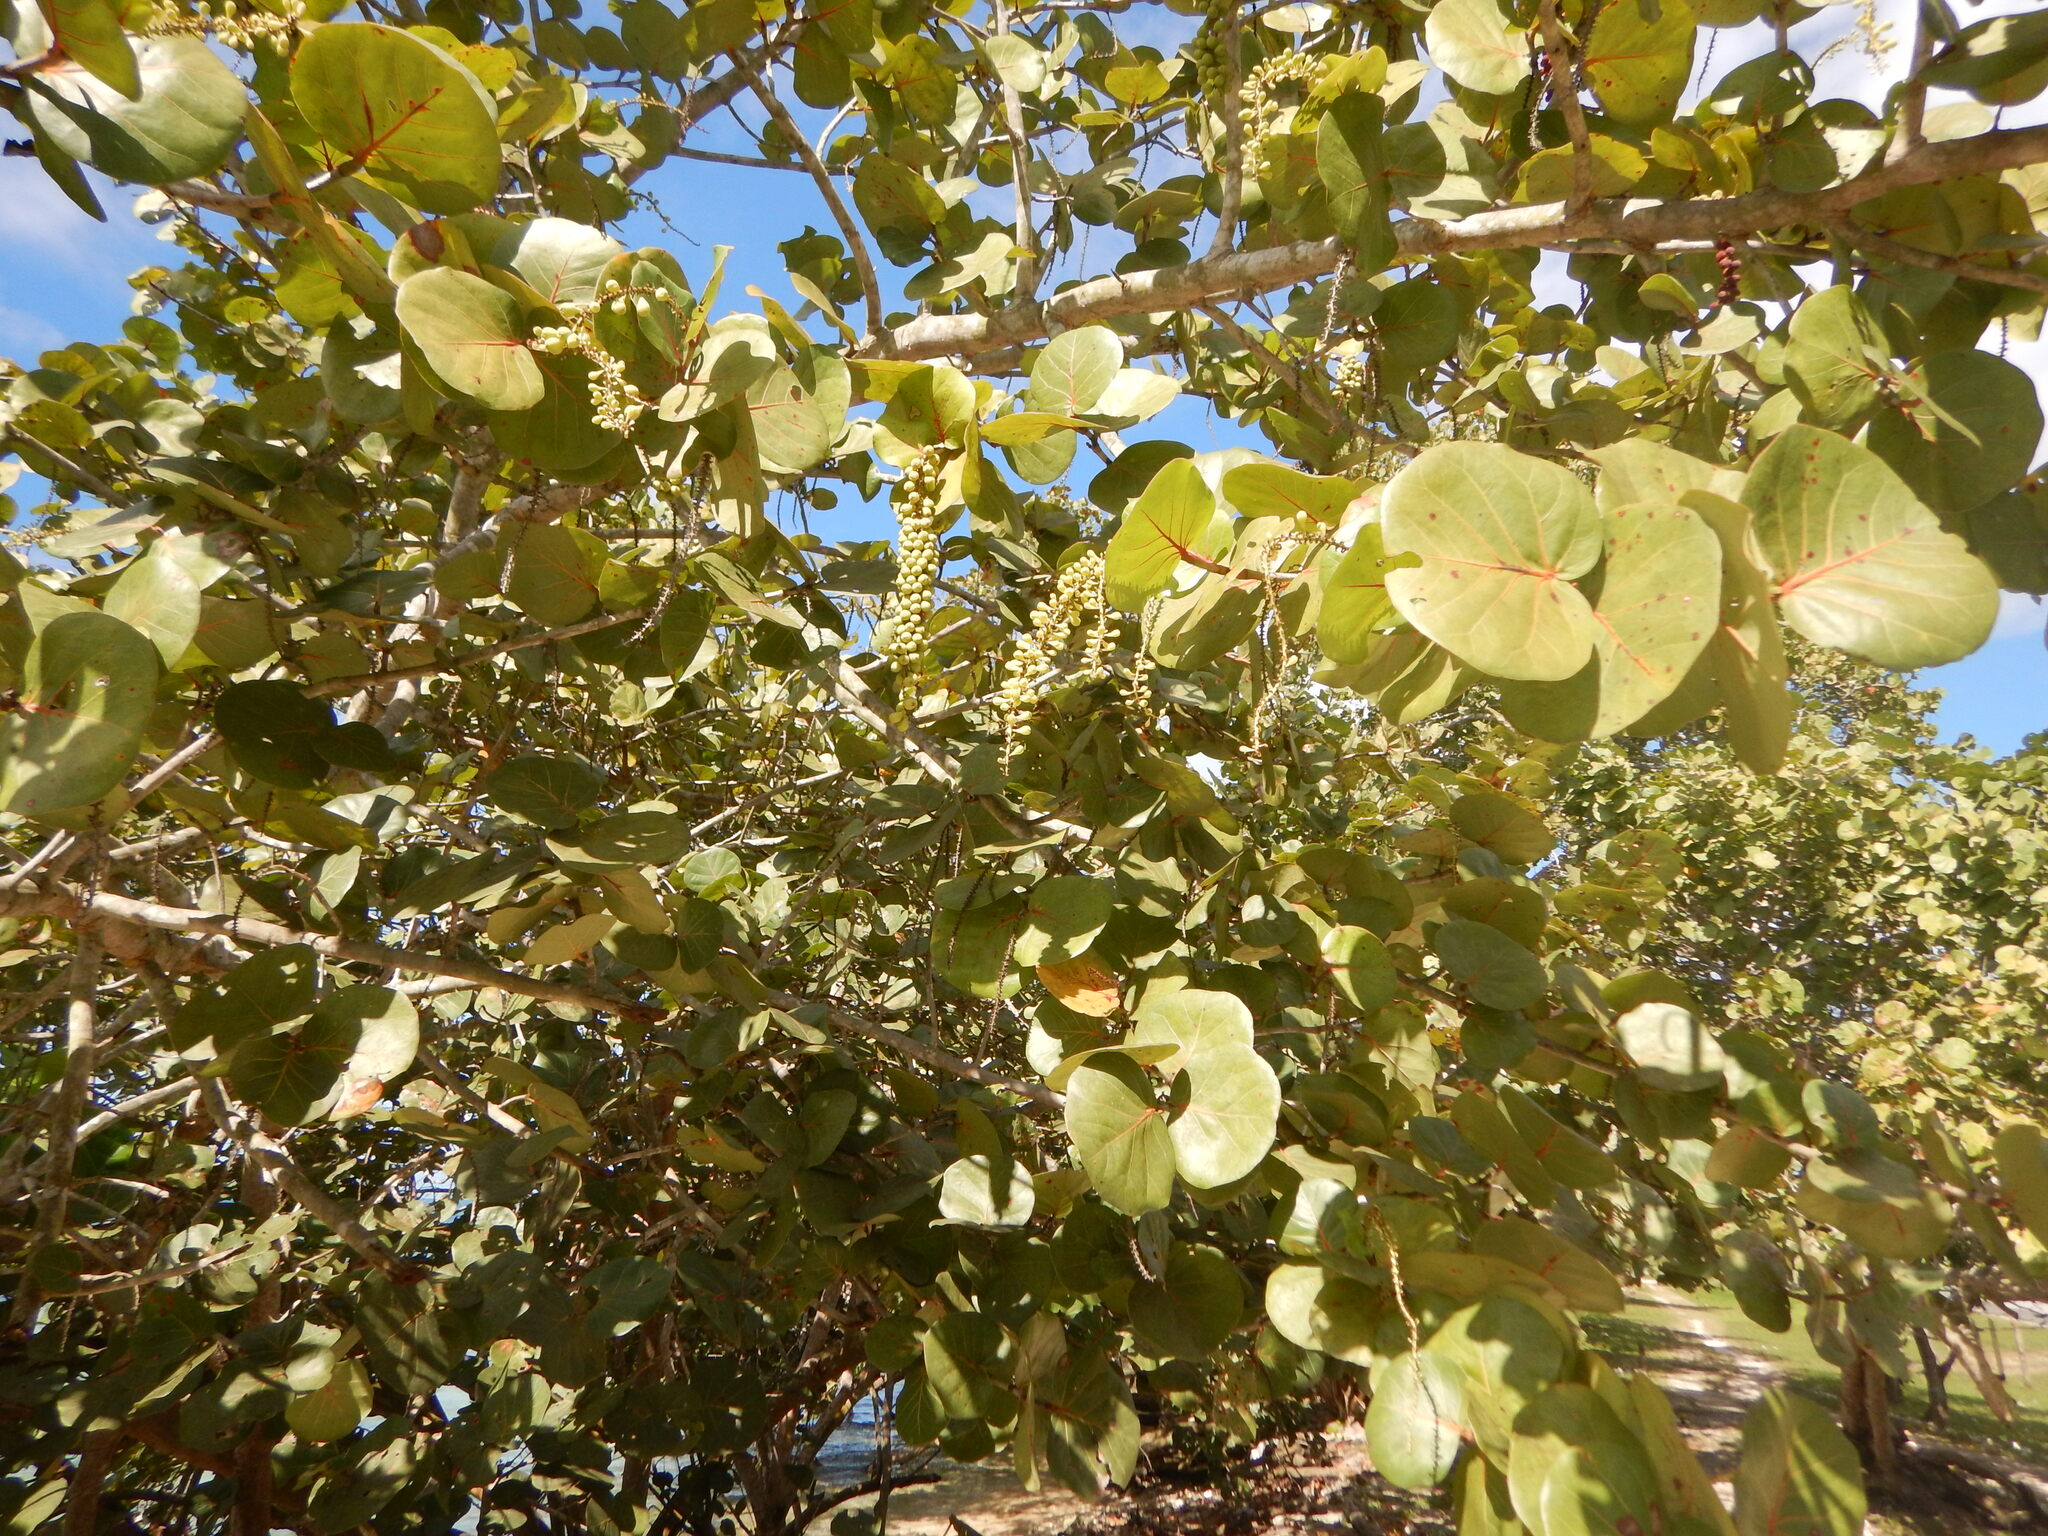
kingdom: Plantae
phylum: Tracheophyta
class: Magnoliopsida
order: Caryophyllales
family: Polygonaceae
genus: Coccoloba
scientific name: Coccoloba uvifera
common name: Seagrape
